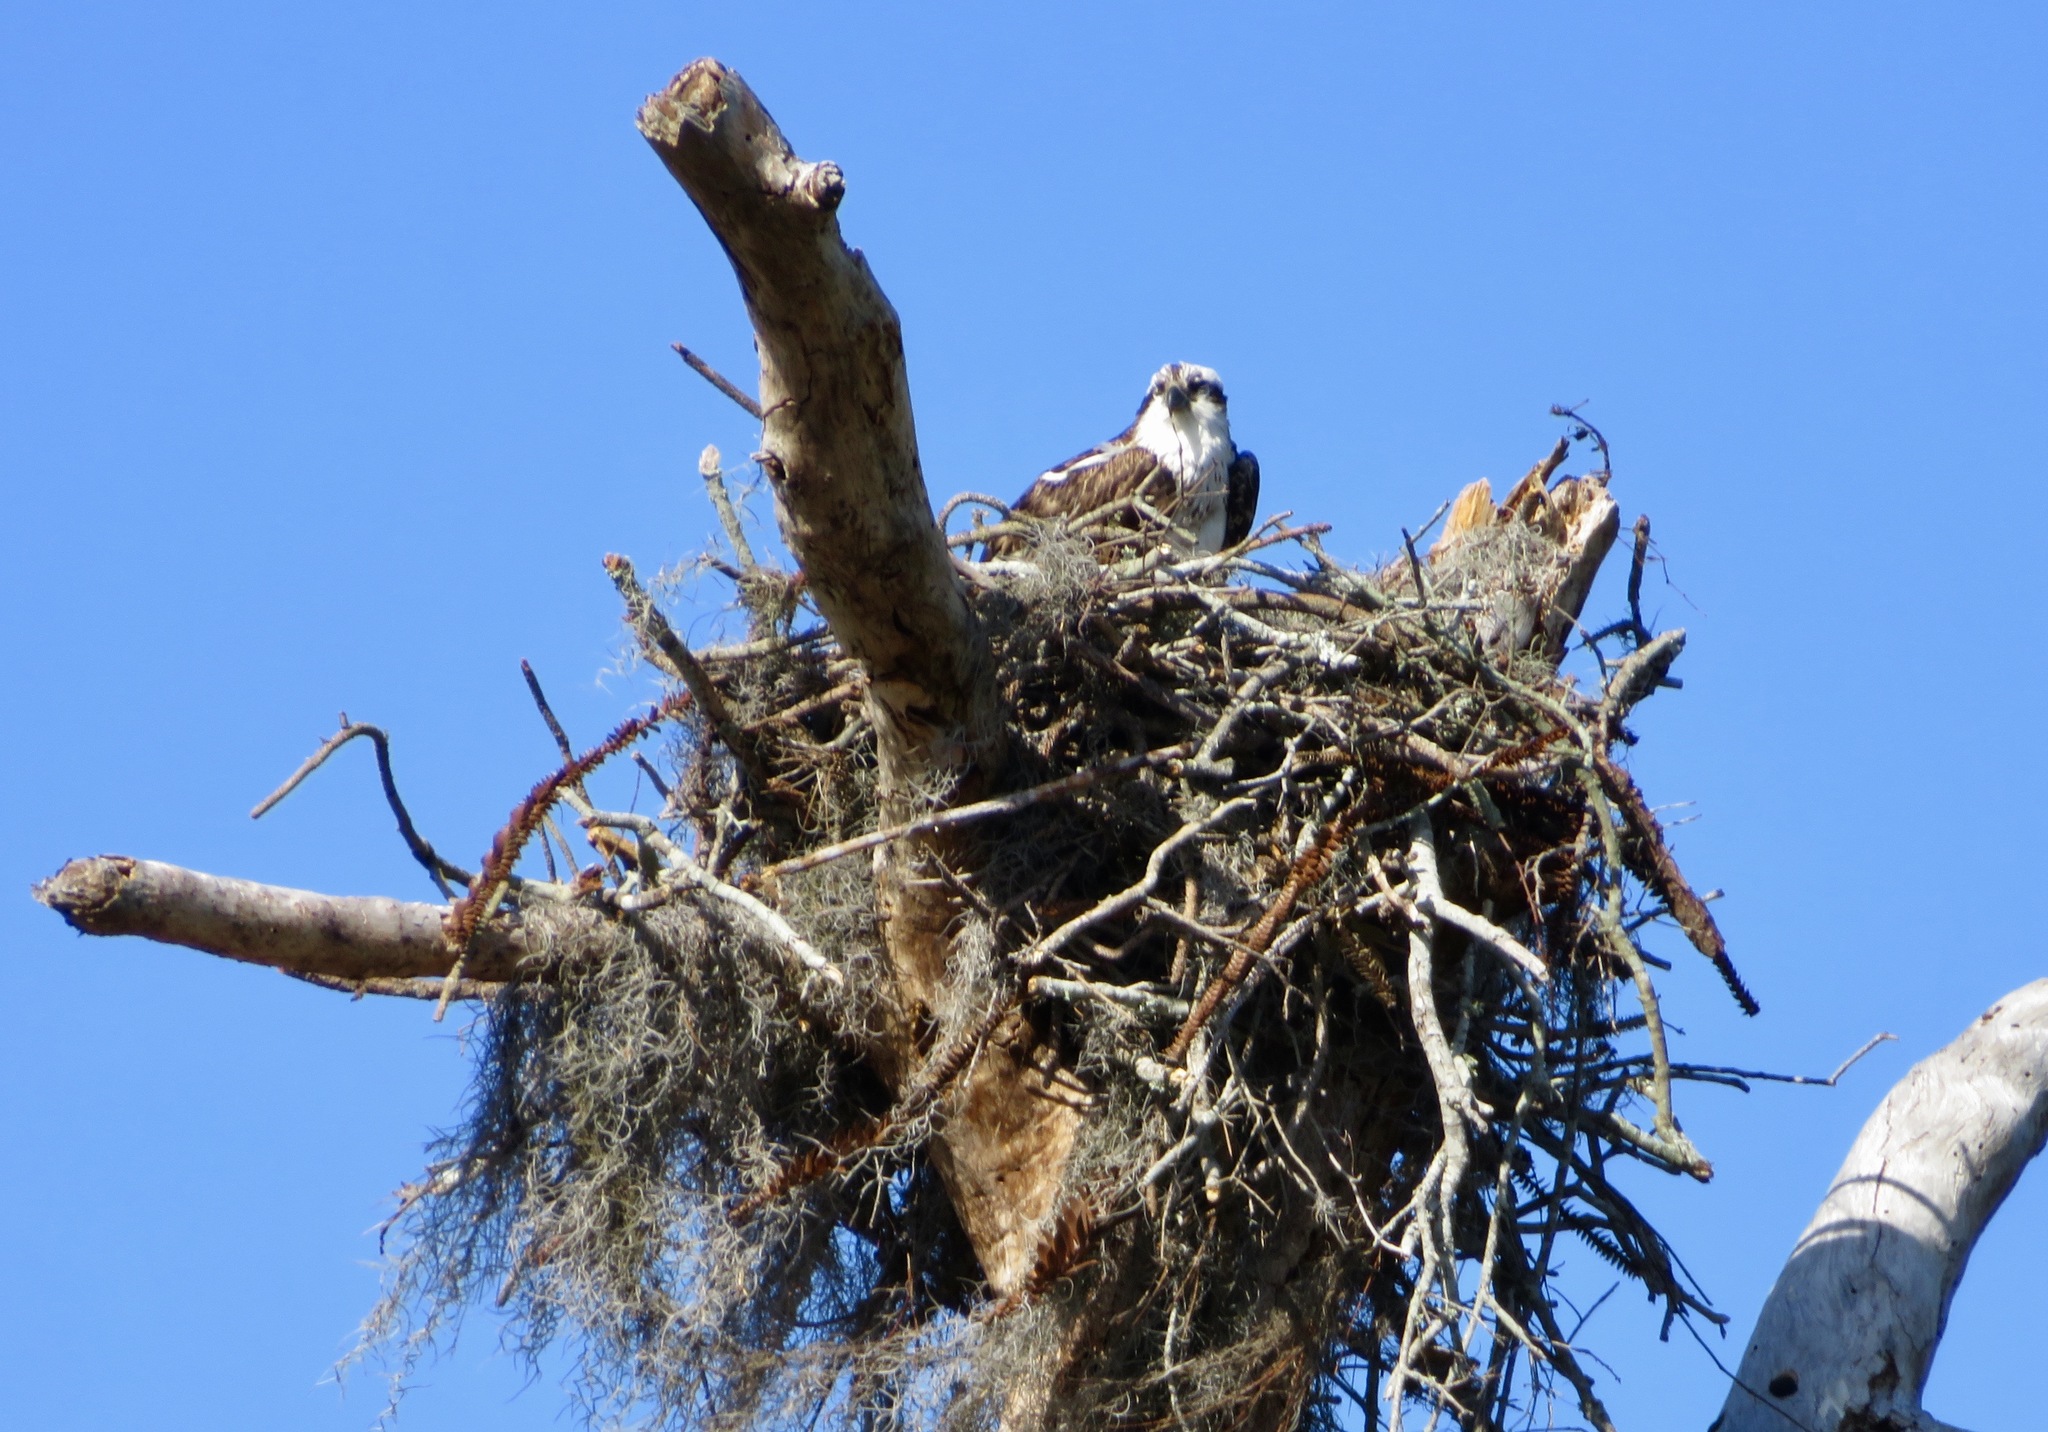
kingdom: Animalia
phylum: Chordata
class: Aves
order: Accipitriformes
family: Pandionidae
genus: Pandion
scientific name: Pandion haliaetus
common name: Osprey
